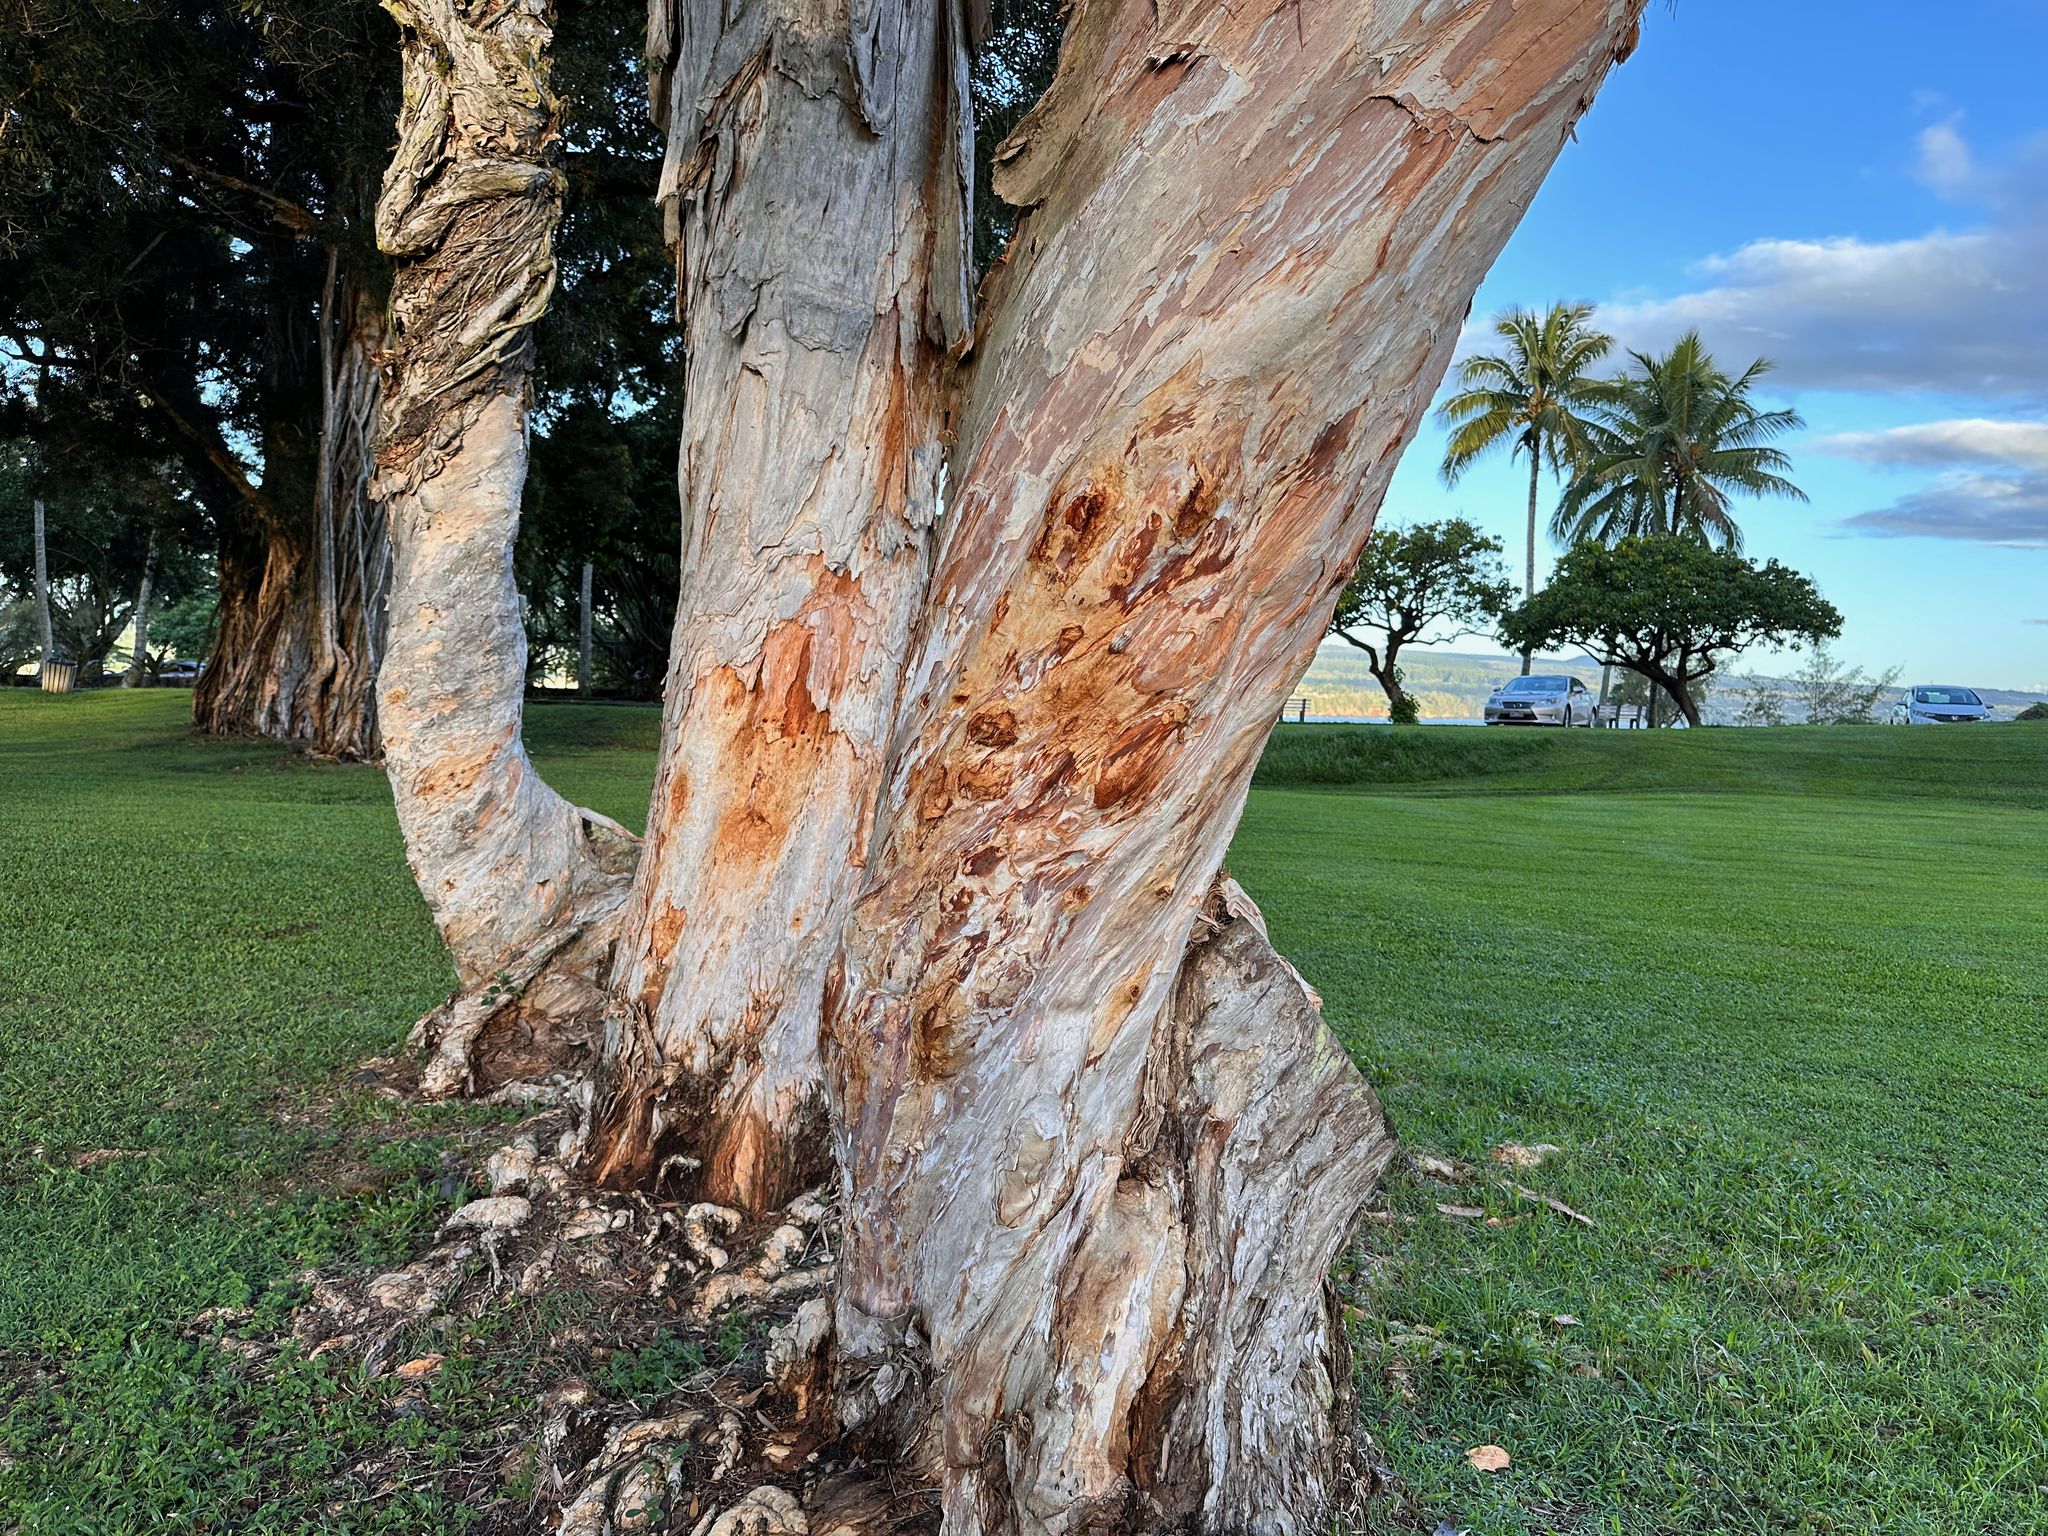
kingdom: Plantae
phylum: Tracheophyta
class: Magnoliopsida
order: Myrtales
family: Myrtaceae
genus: Melaleuca
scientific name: Melaleuca quinquenervia
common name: Punktree
